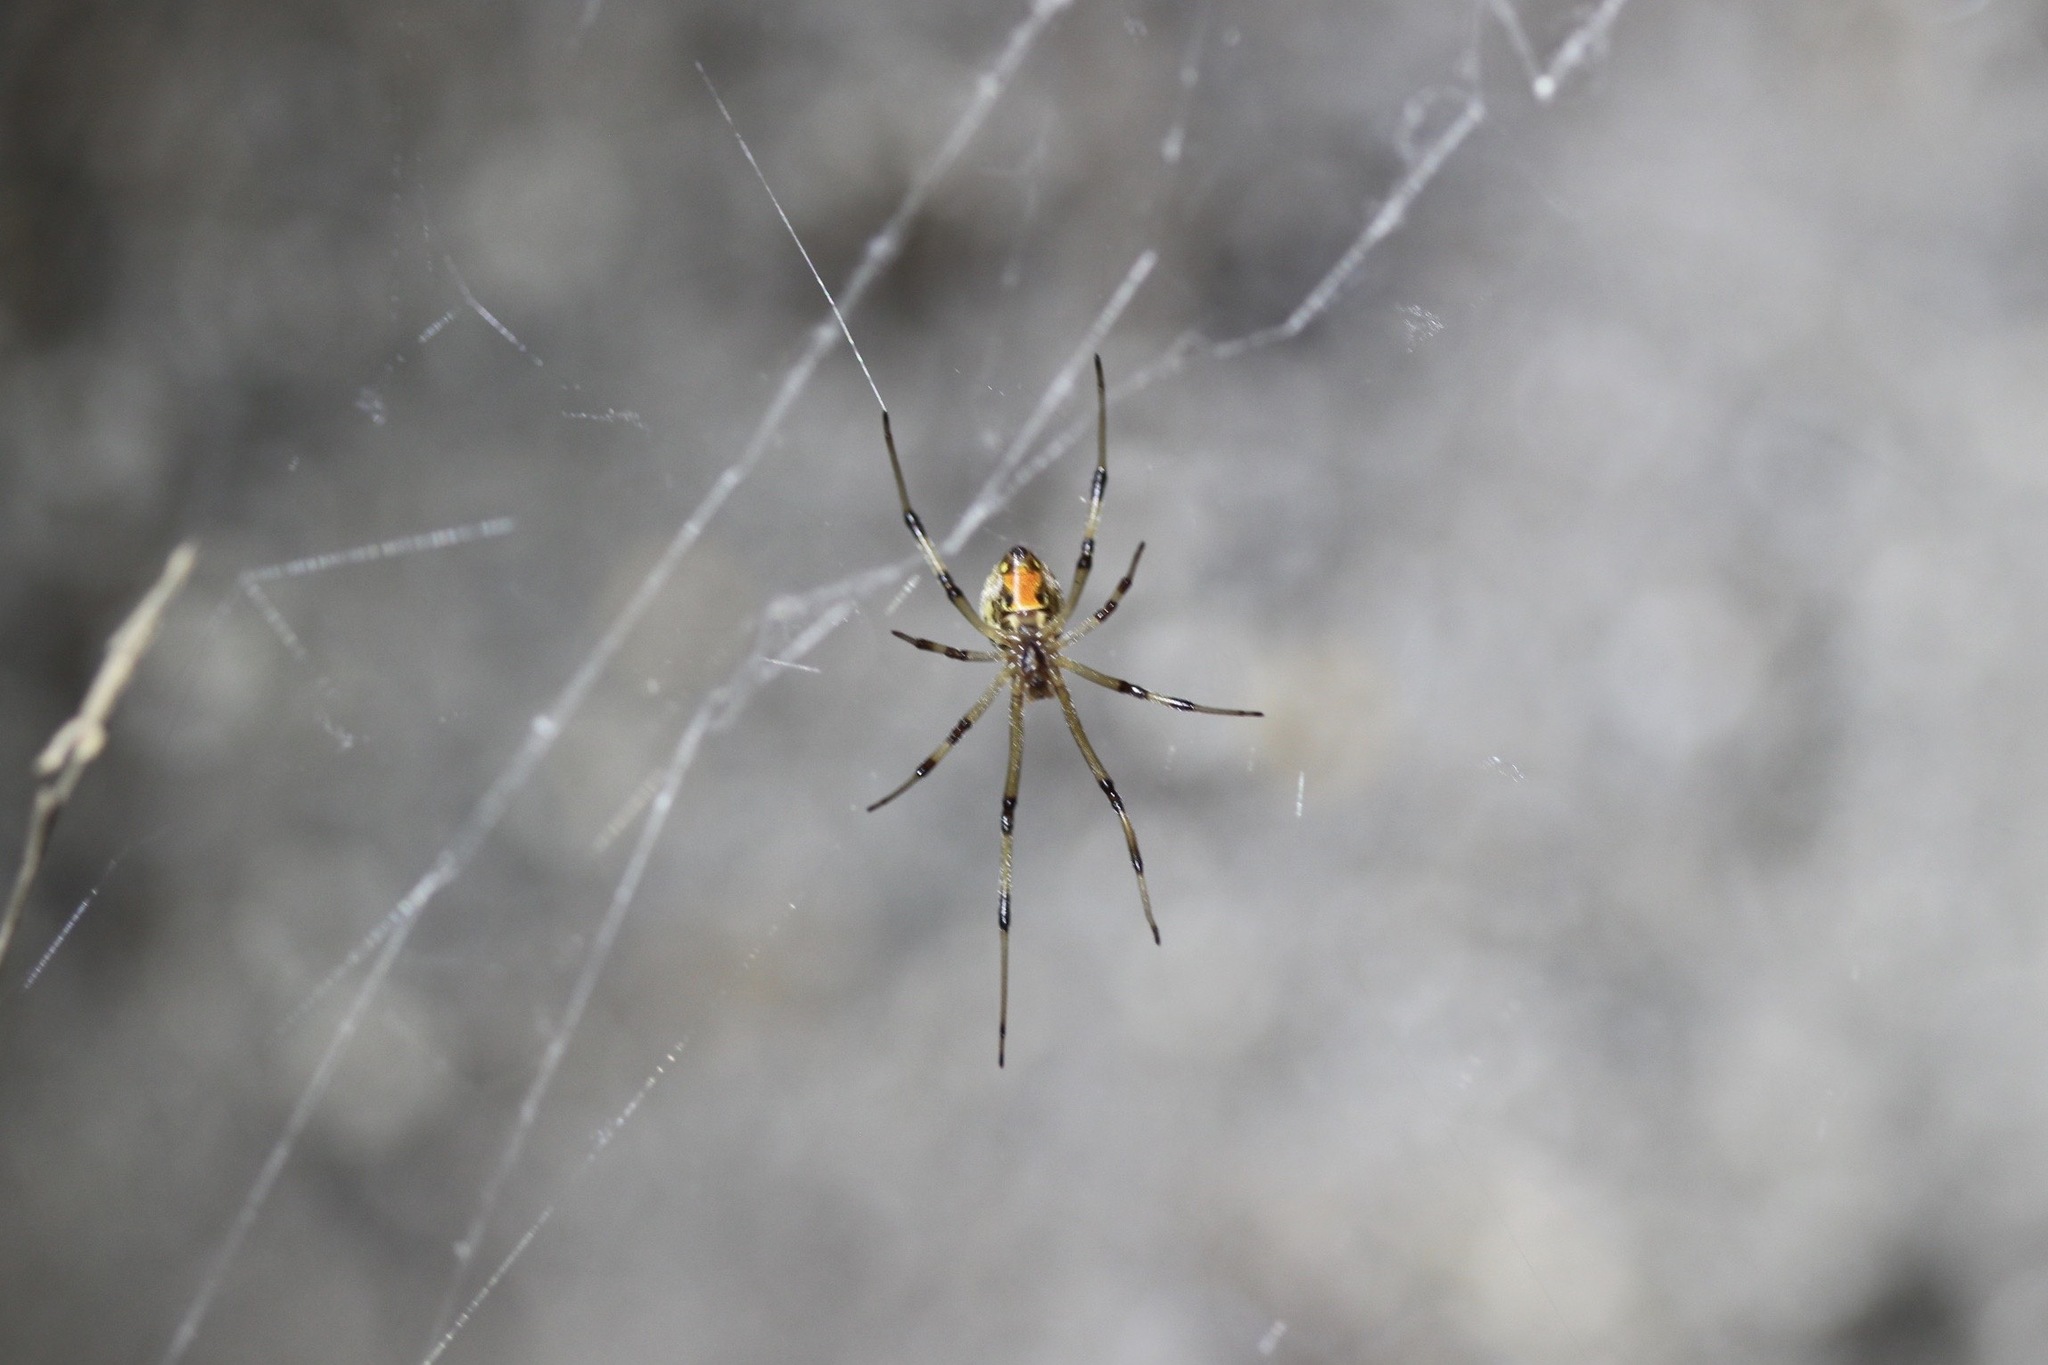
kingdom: Animalia
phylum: Arthropoda
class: Arachnida
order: Araneae
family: Theridiidae
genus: Latrodectus
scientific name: Latrodectus geometricus
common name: Brown widow spider
